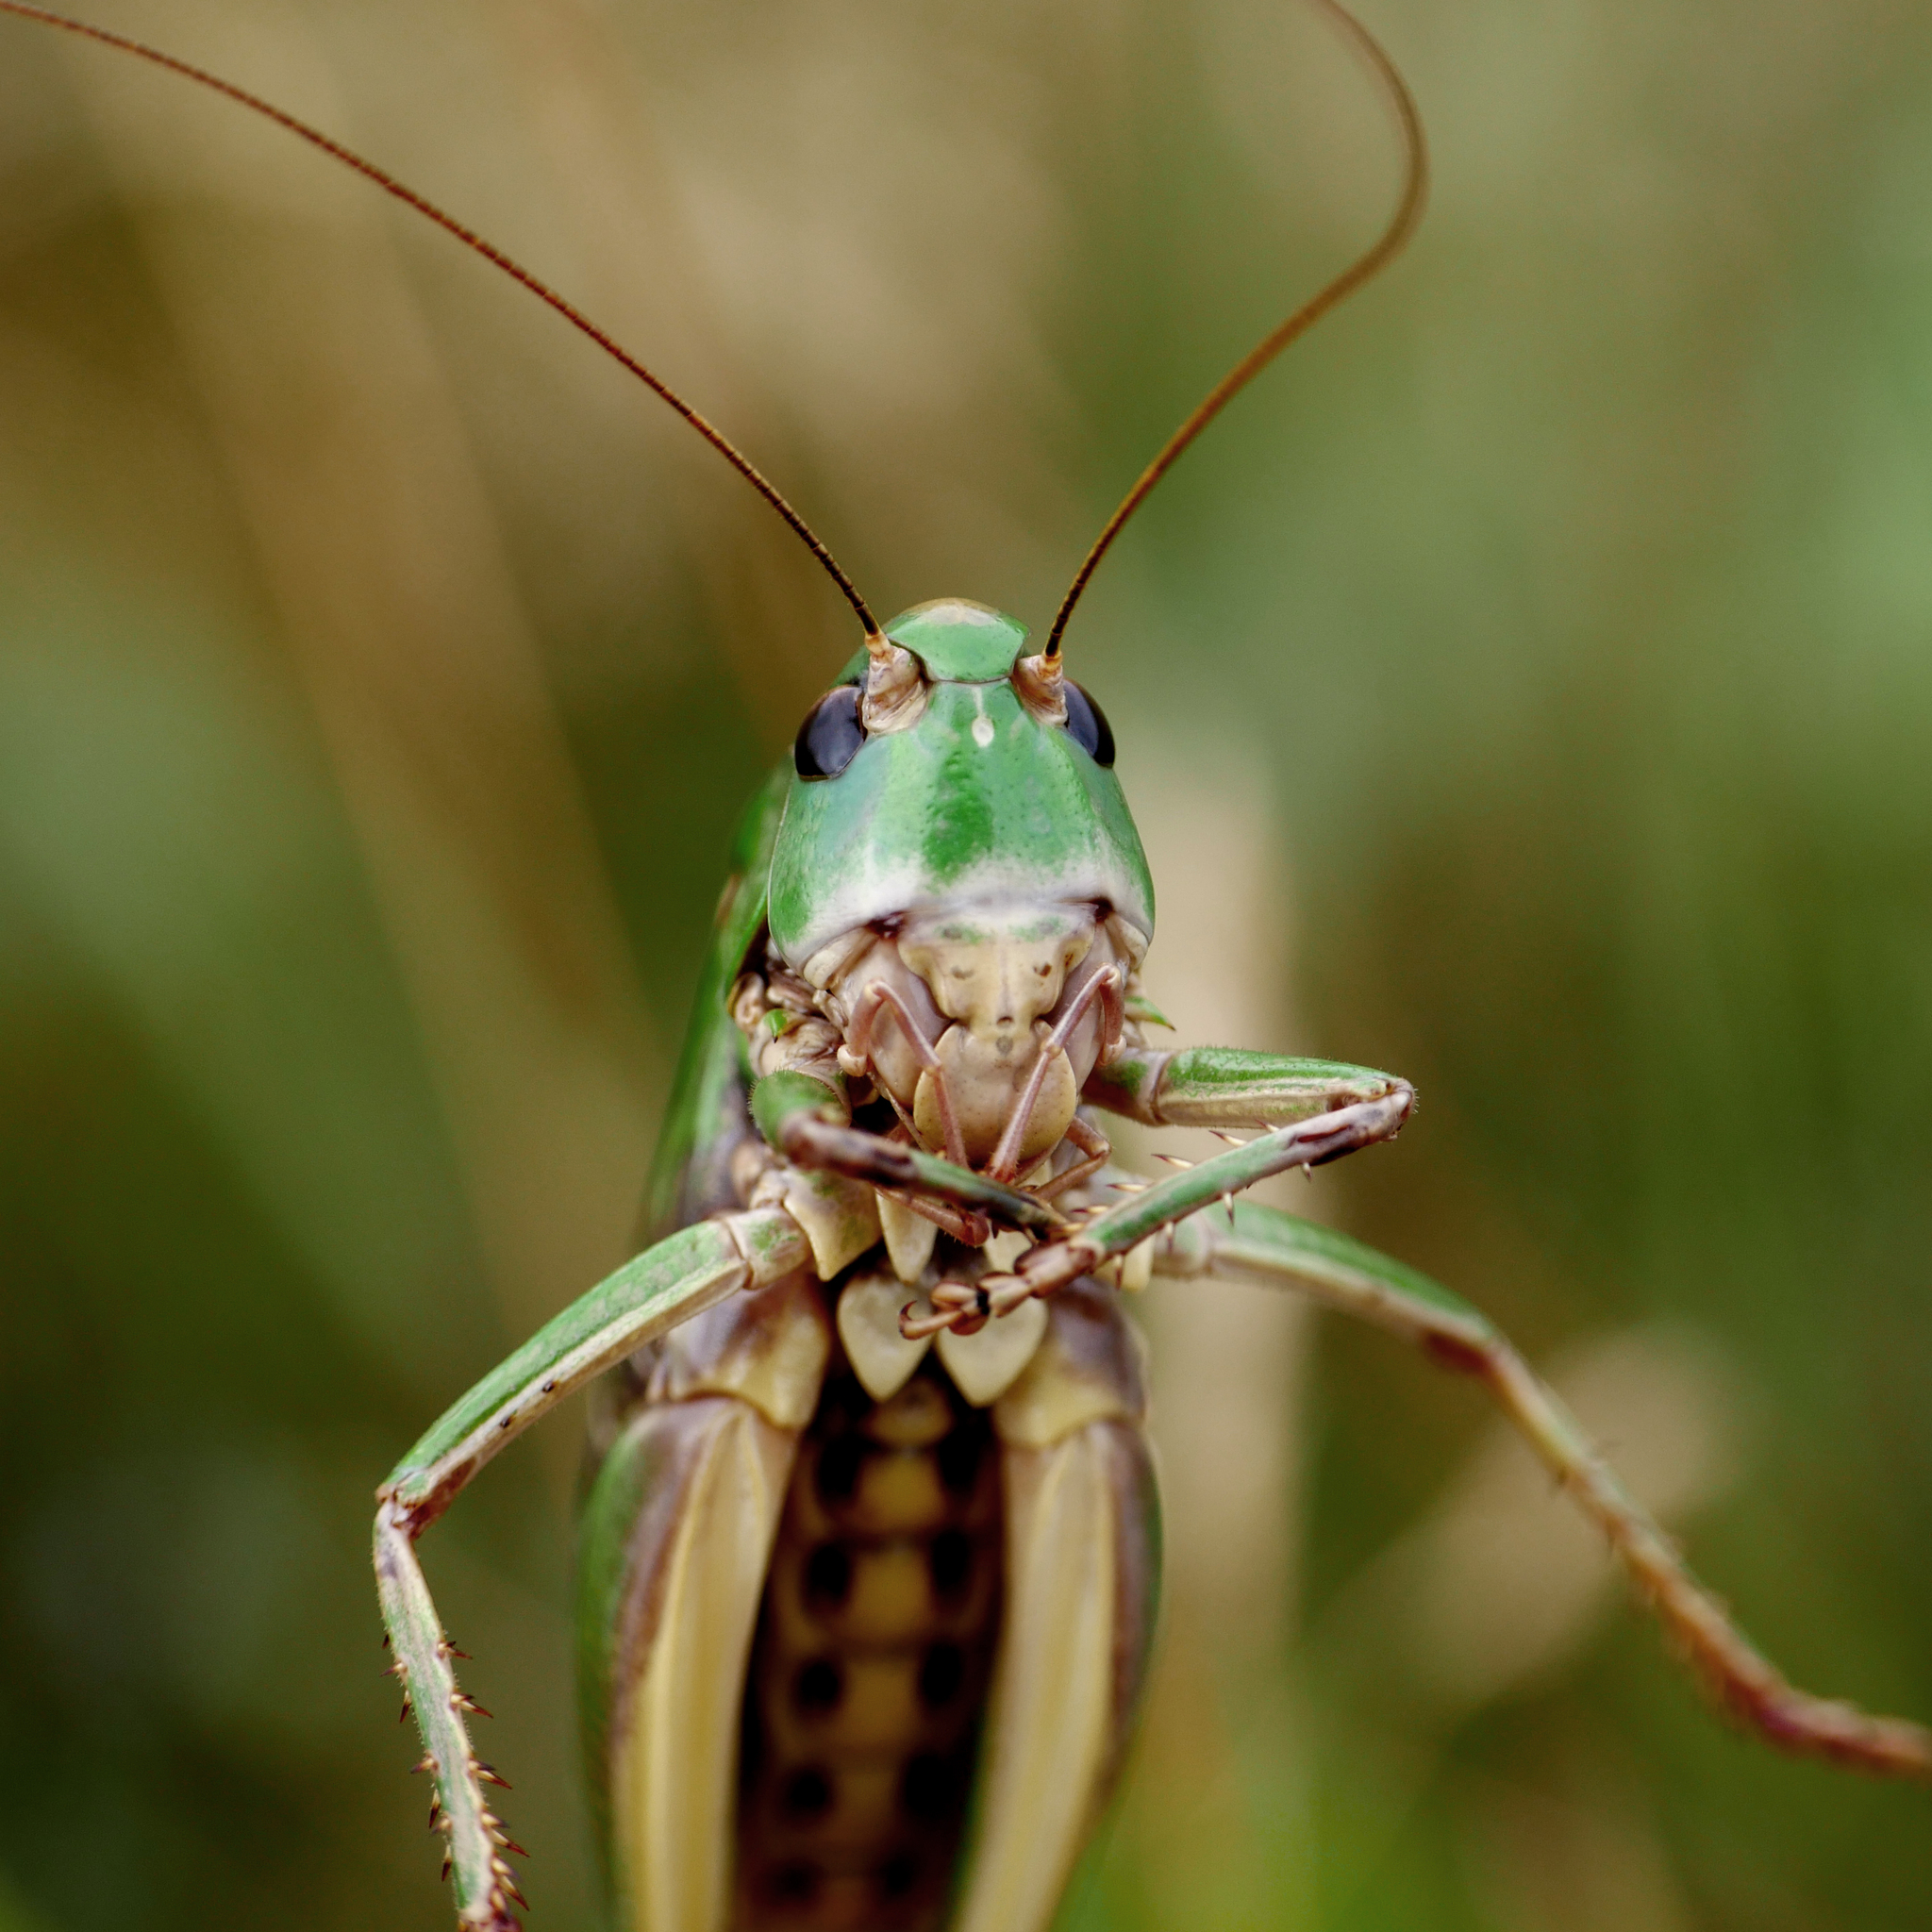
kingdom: Animalia
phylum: Arthropoda
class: Insecta
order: Orthoptera
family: Tettigoniidae
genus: Decticus
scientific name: Decticus verrucivorus
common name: Wart-biter
